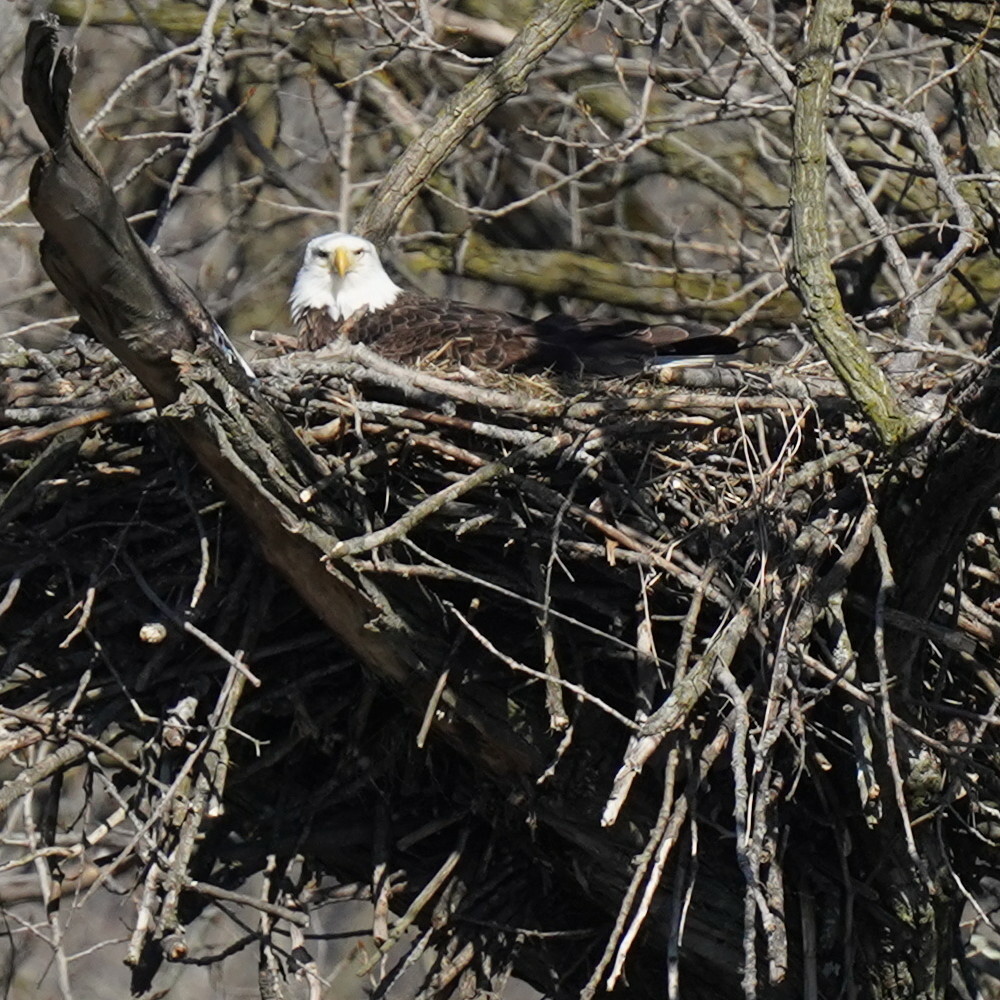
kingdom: Animalia
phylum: Chordata
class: Aves
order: Accipitriformes
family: Accipitridae
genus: Haliaeetus
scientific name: Haliaeetus leucocephalus
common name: Bald eagle
